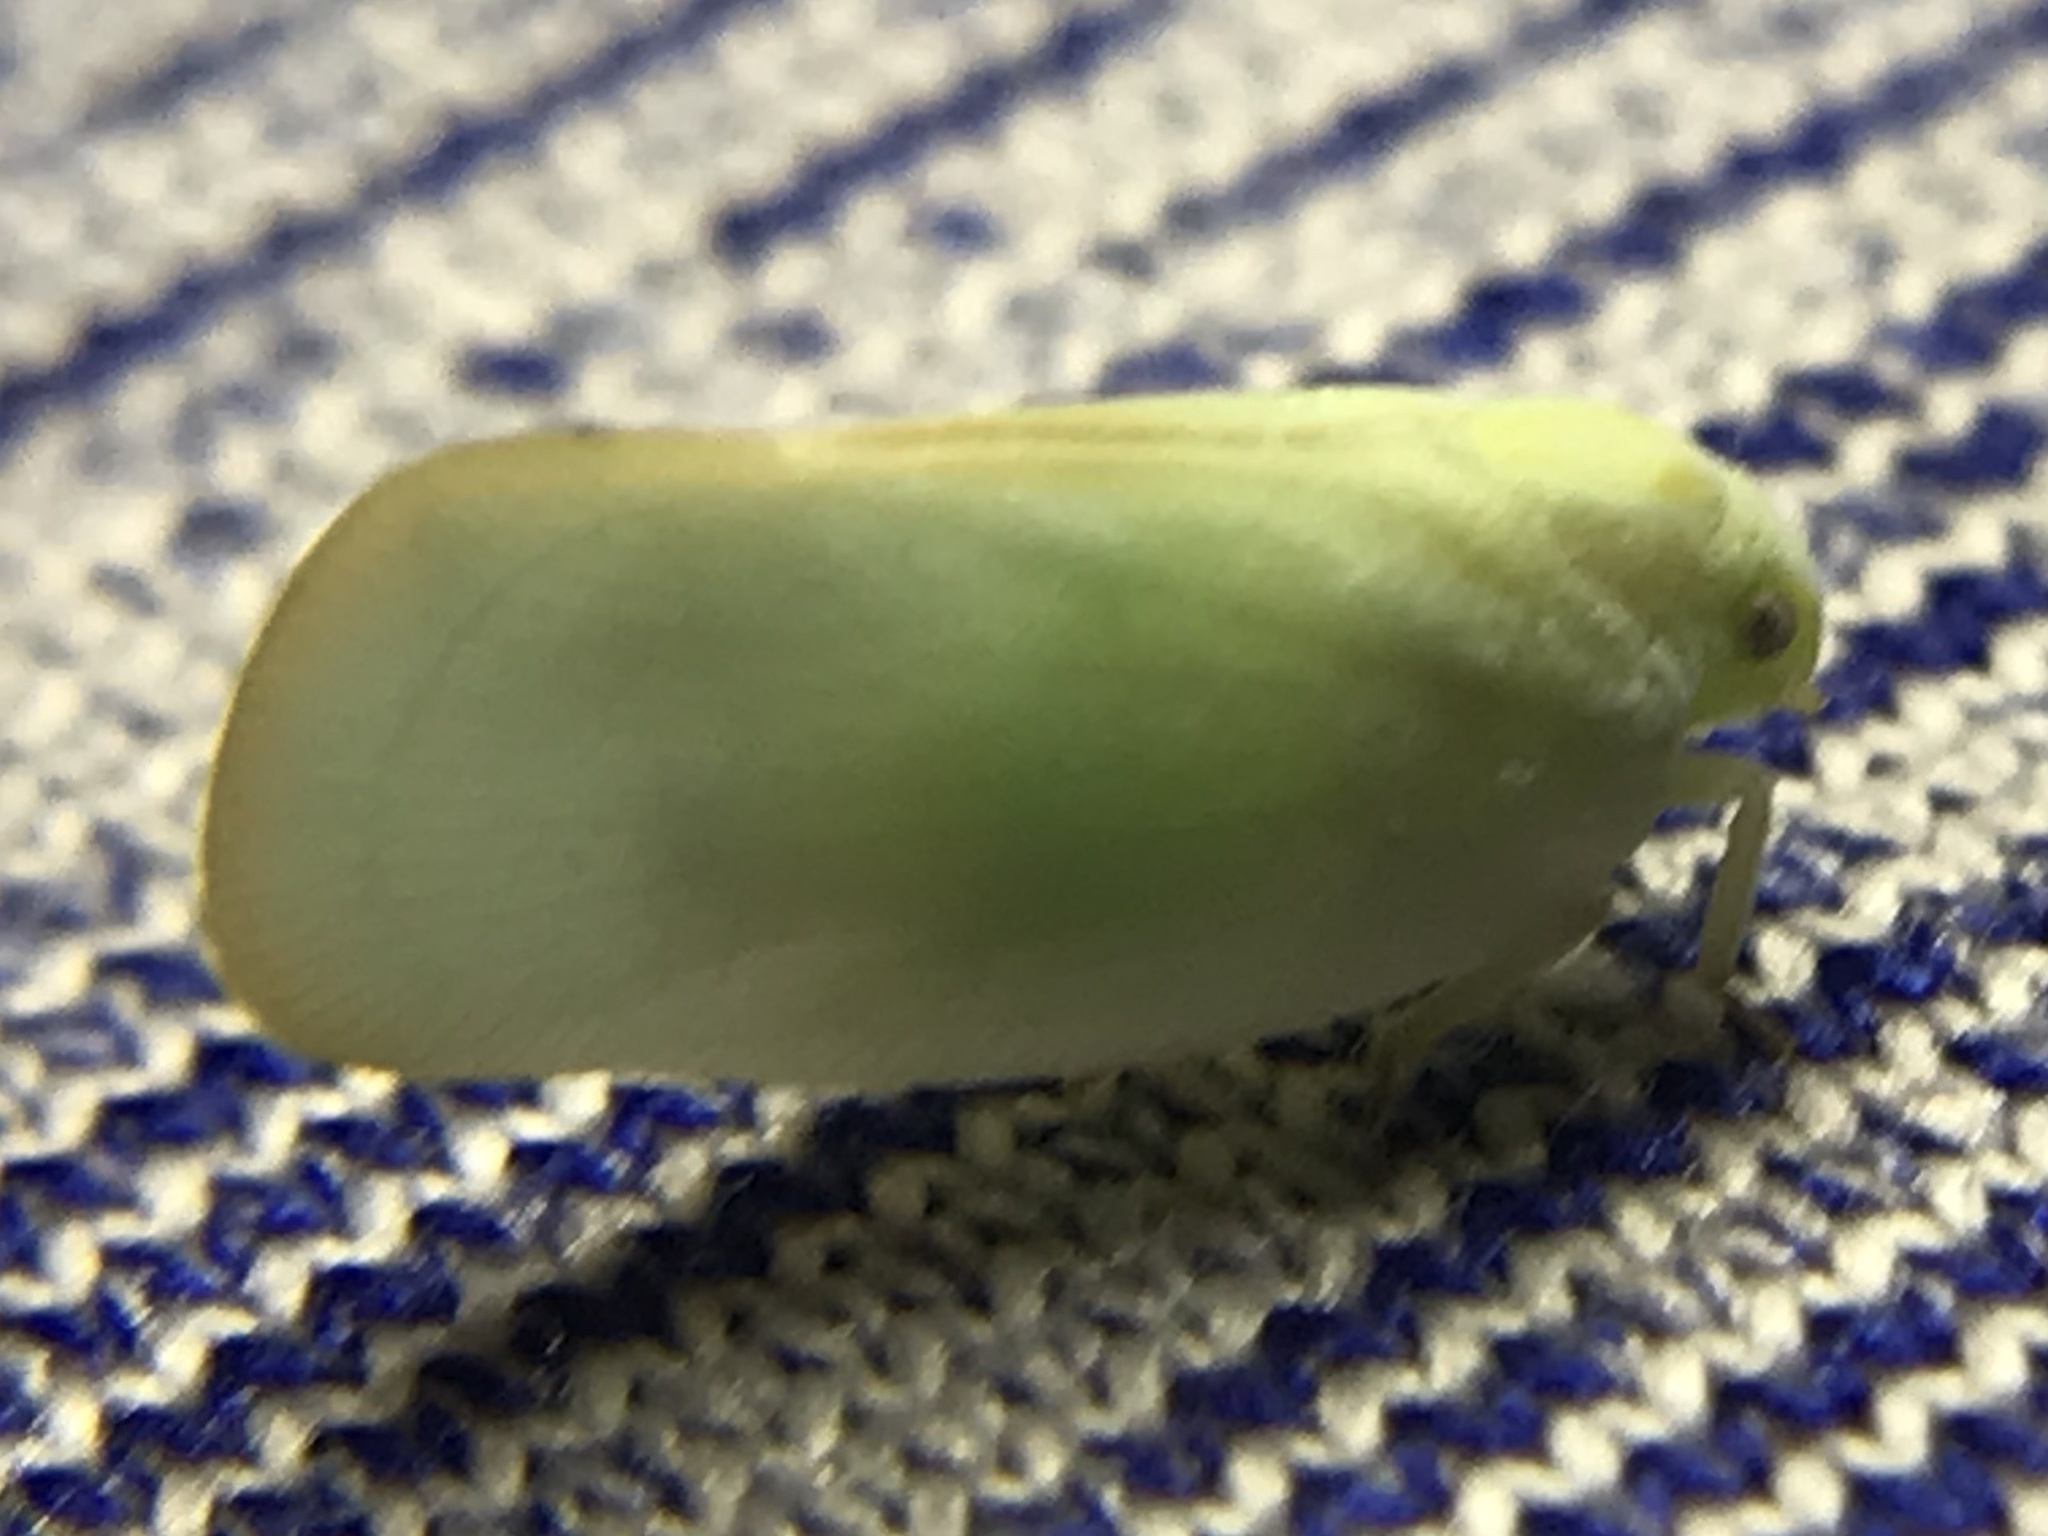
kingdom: Animalia
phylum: Arthropoda
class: Insecta
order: Hemiptera
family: Flatidae
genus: Ormenoides
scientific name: Ormenoides venusta
